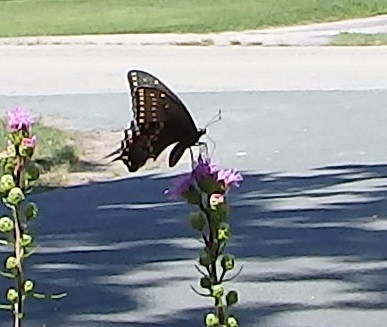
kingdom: Animalia
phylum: Arthropoda
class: Insecta
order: Lepidoptera
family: Papilionidae
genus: Papilio
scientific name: Papilio polyxenes
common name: Black swallowtail
